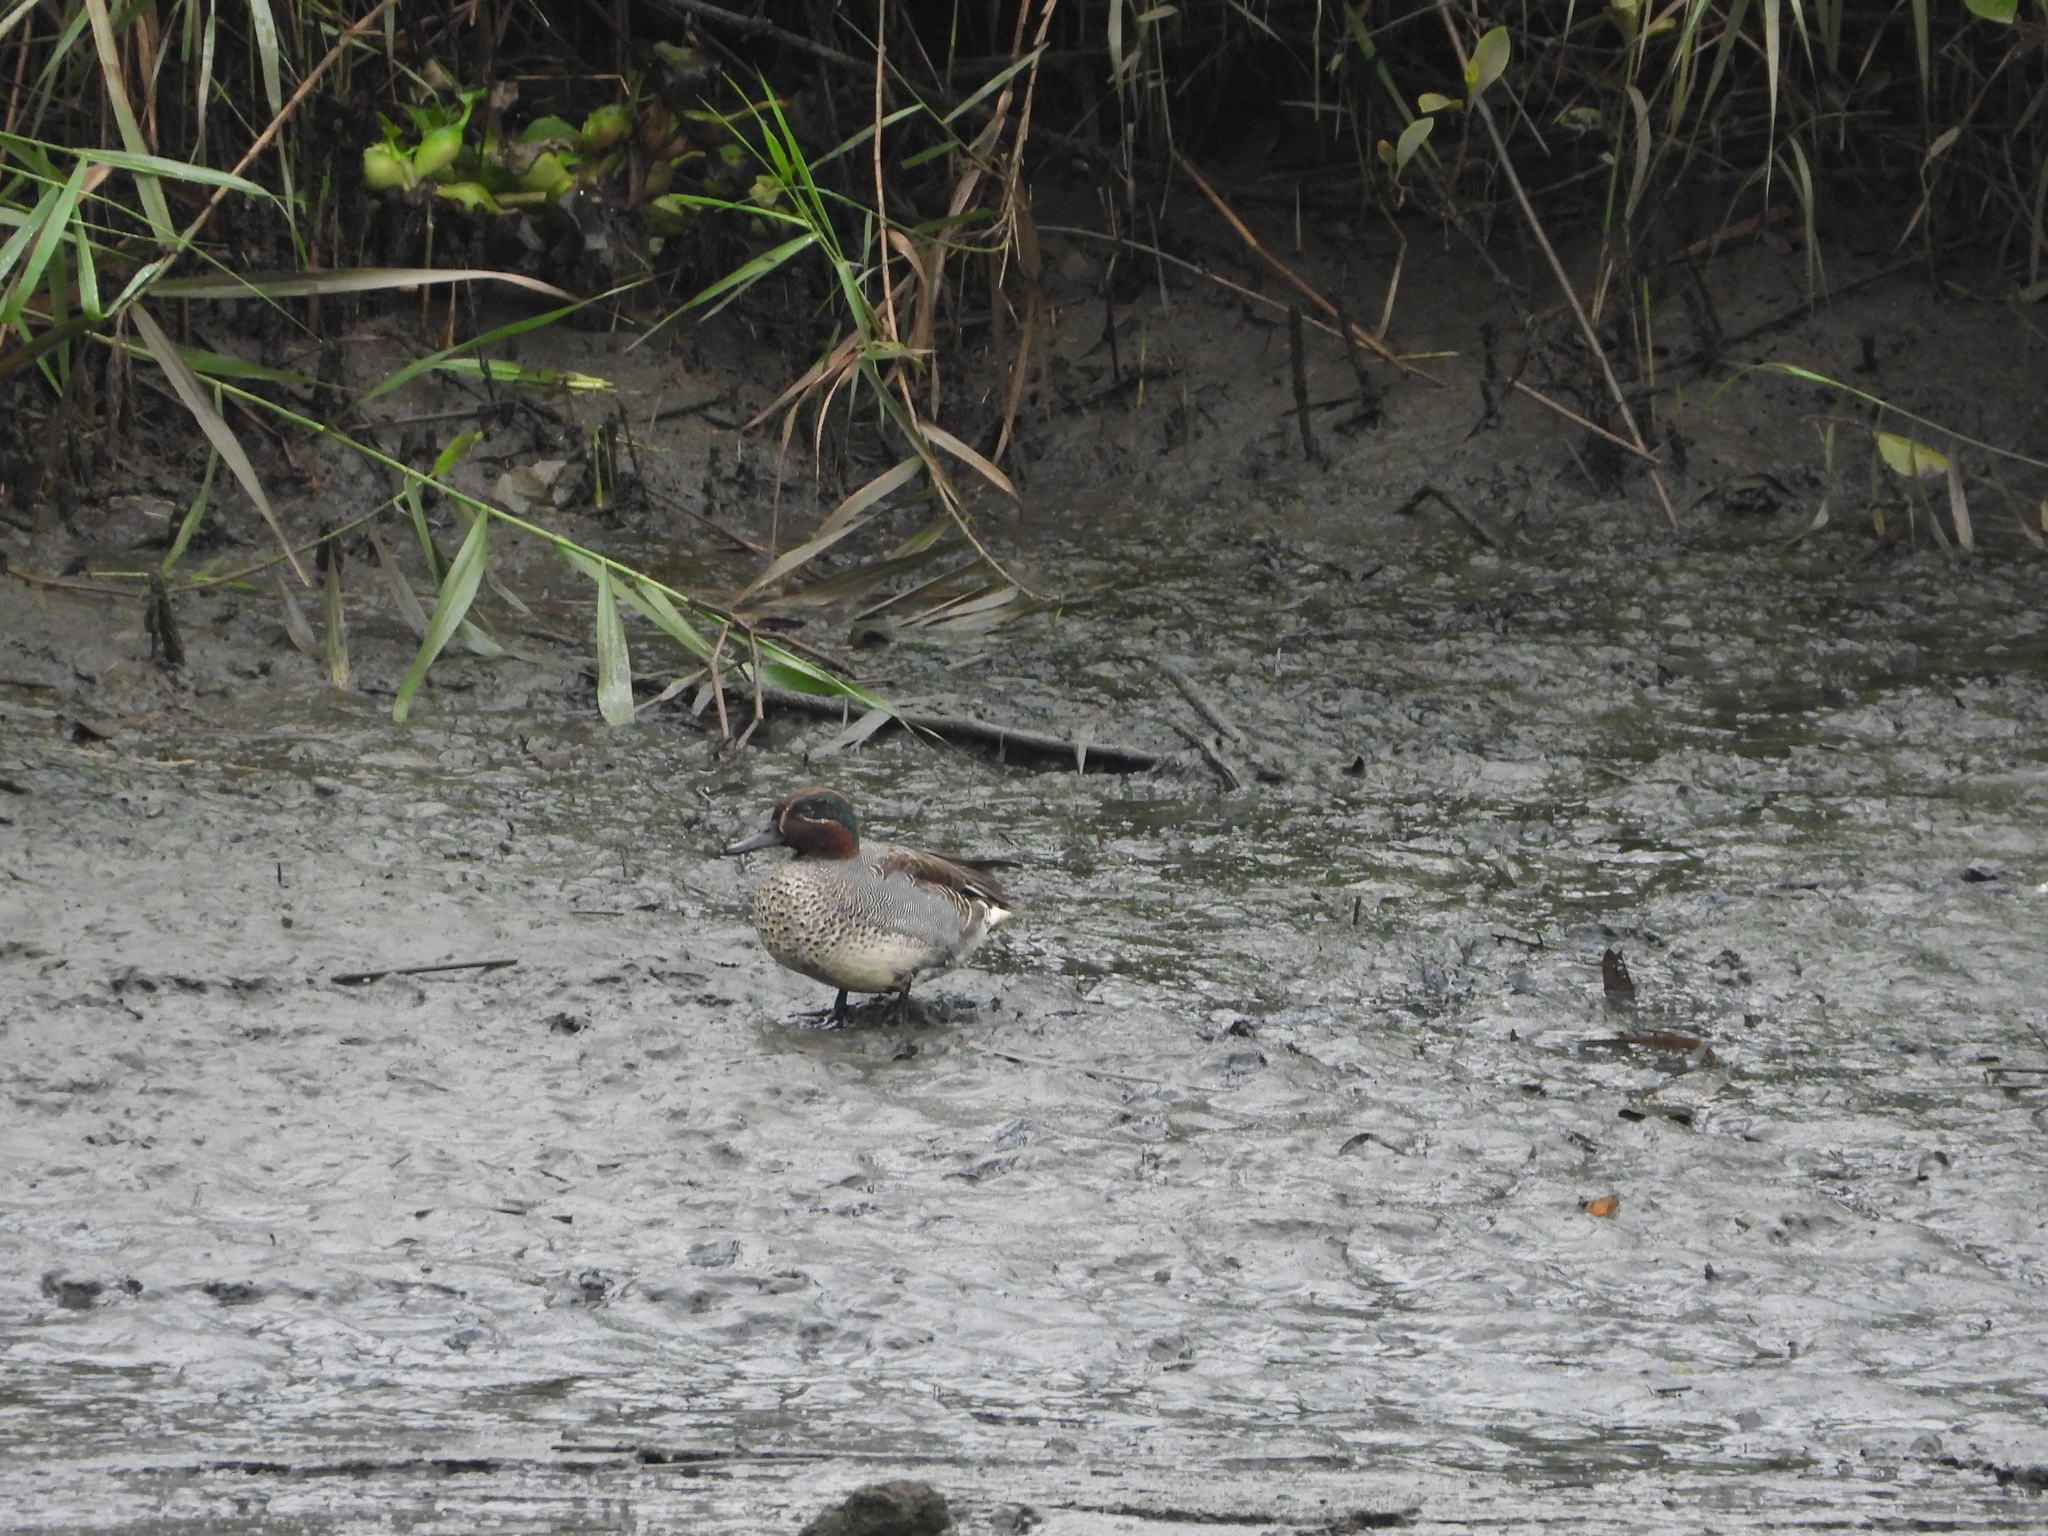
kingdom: Animalia
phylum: Chordata
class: Aves
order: Anseriformes
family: Anatidae
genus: Anas
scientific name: Anas crecca
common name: Eurasian teal
